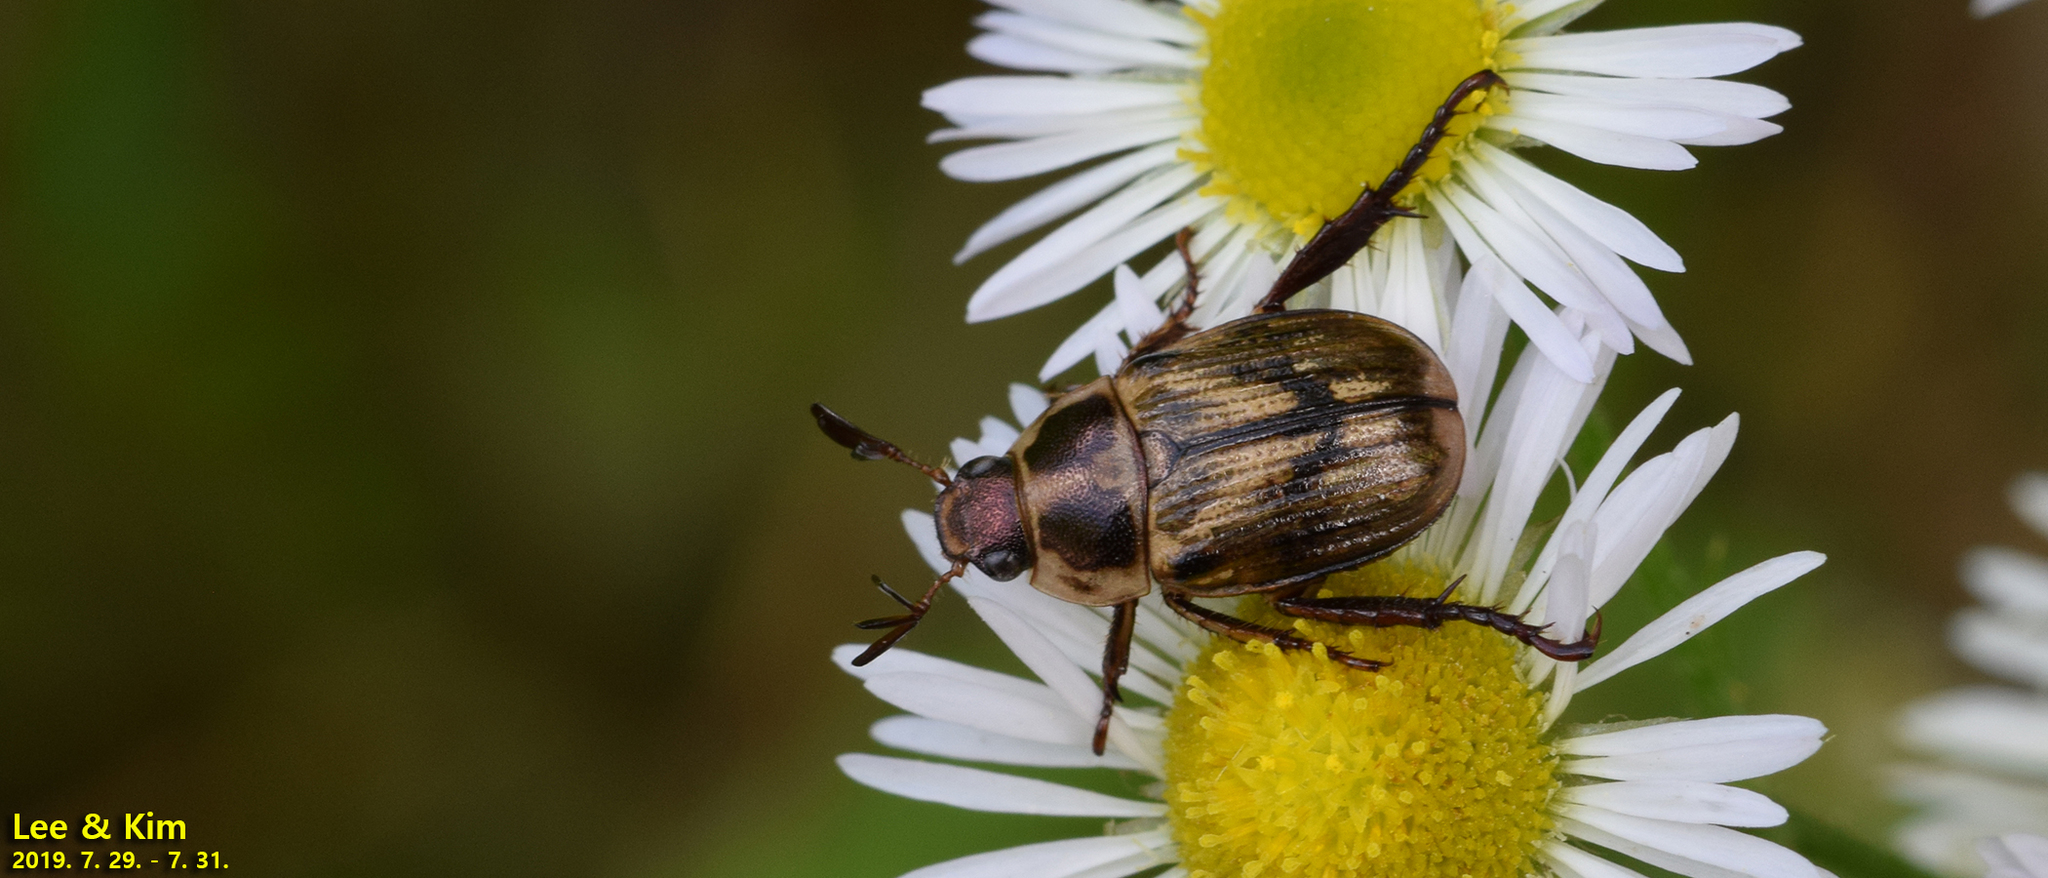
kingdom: Animalia
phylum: Arthropoda
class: Insecta
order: Coleoptera
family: Scarabaeidae
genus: Exomala
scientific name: Exomala orientalis
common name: Oriental beetle
